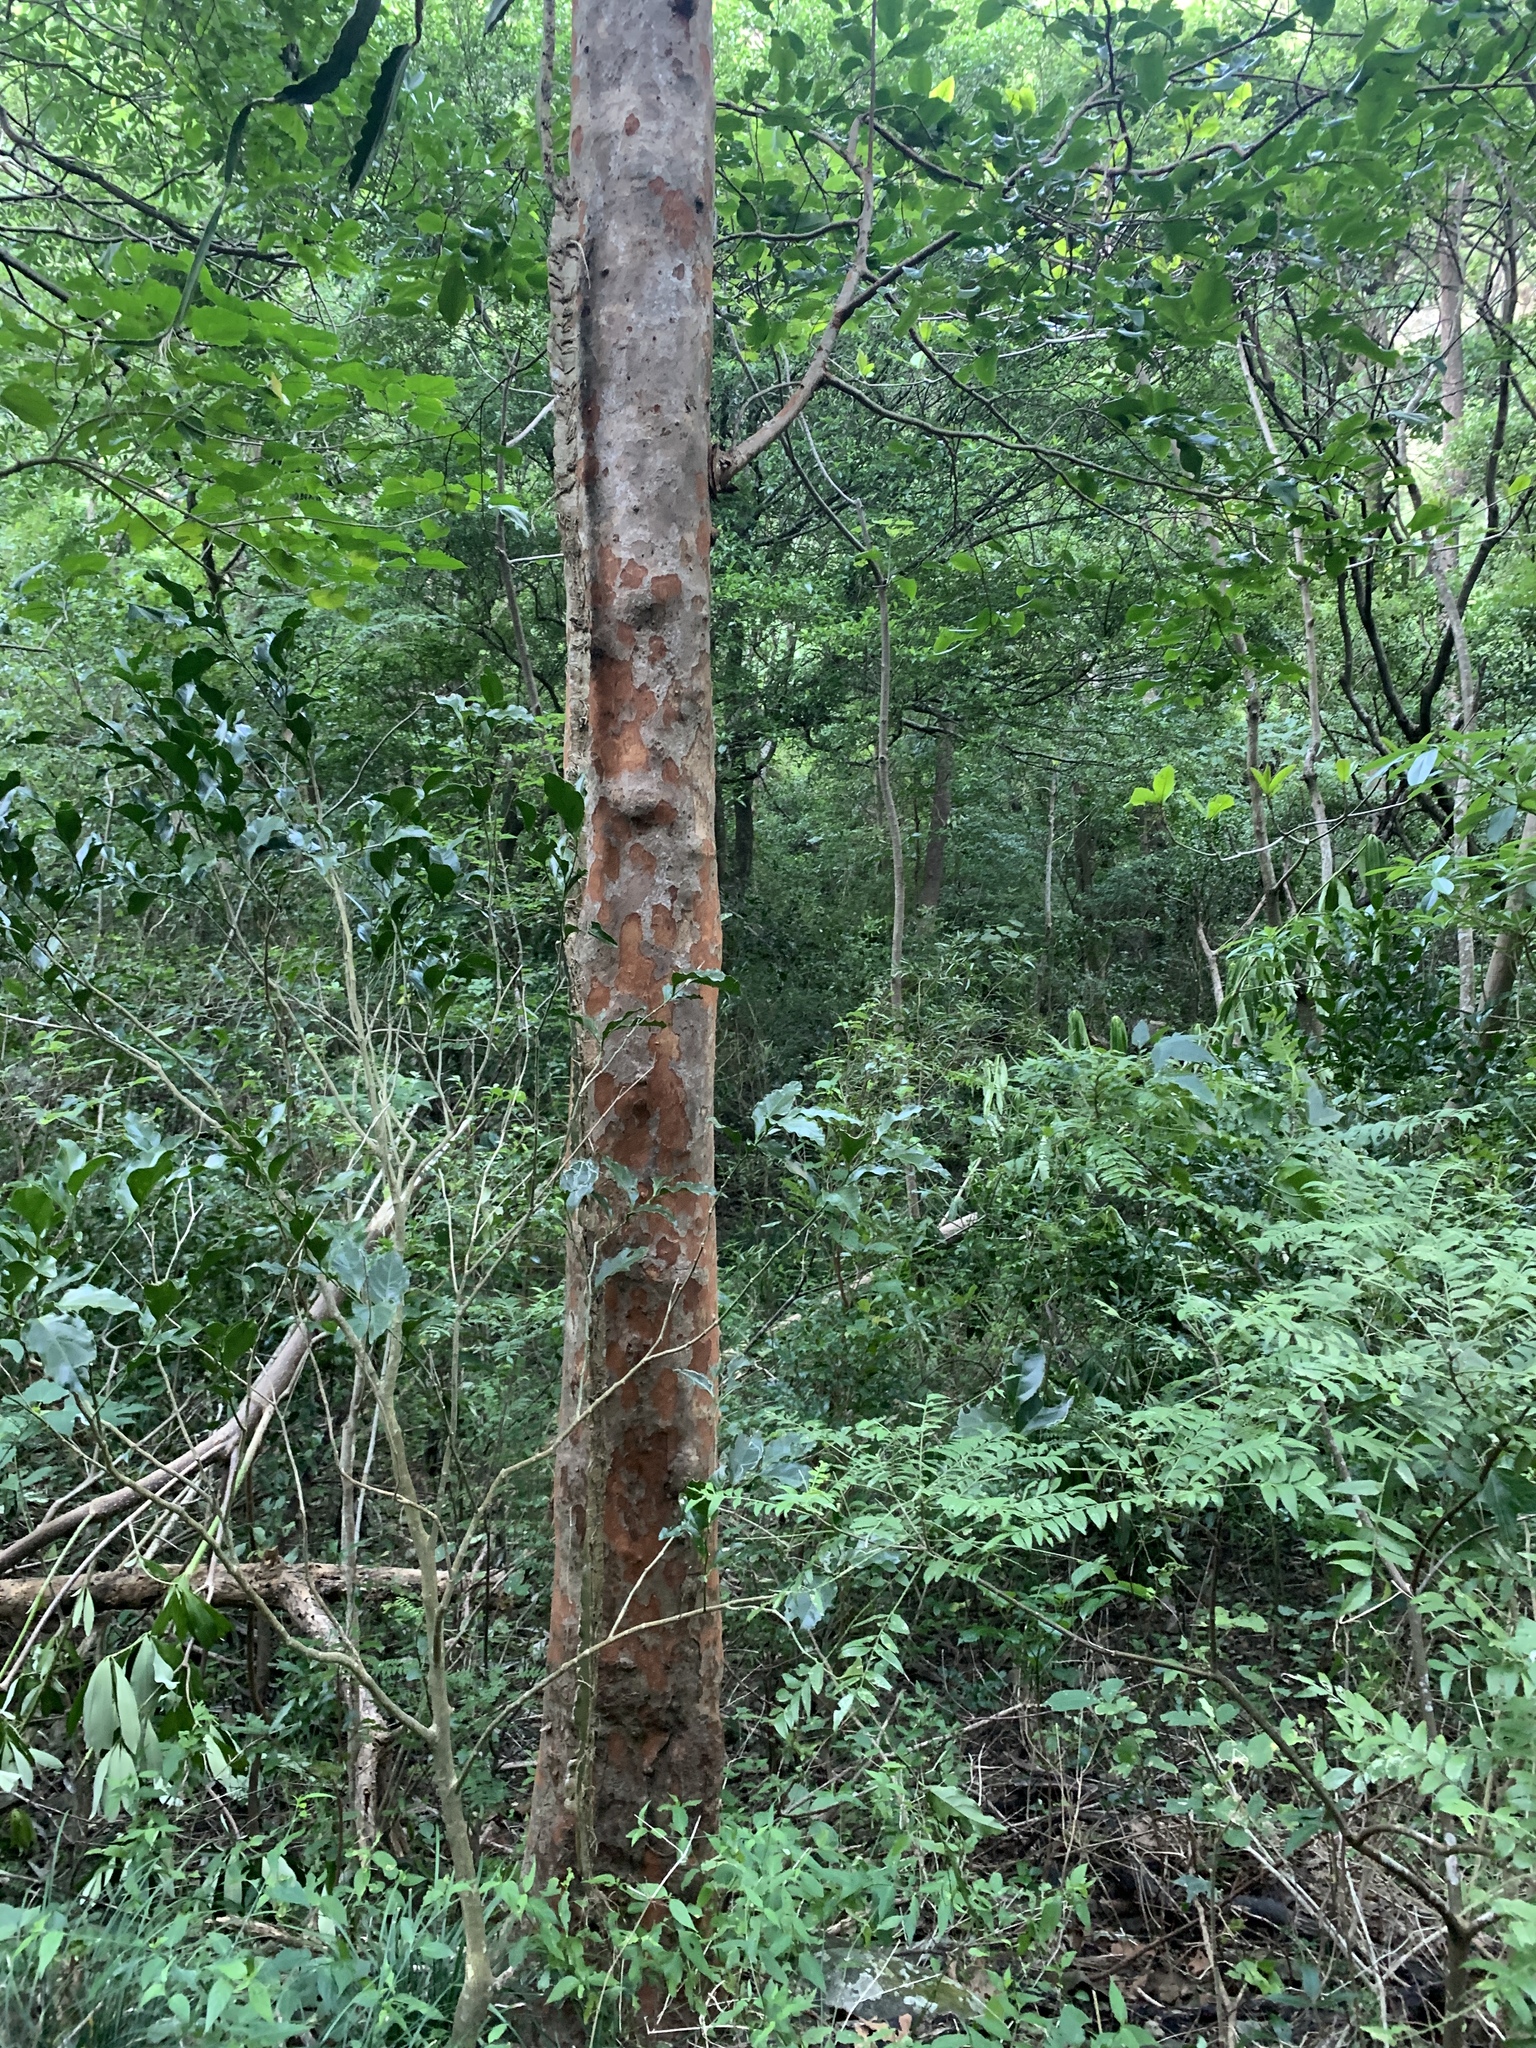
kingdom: Plantae
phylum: Tracheophyta
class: Magnoliopsida
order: Malpighiales
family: Phyllanthaceae
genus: Margaritaria
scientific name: Margaritaria indica
